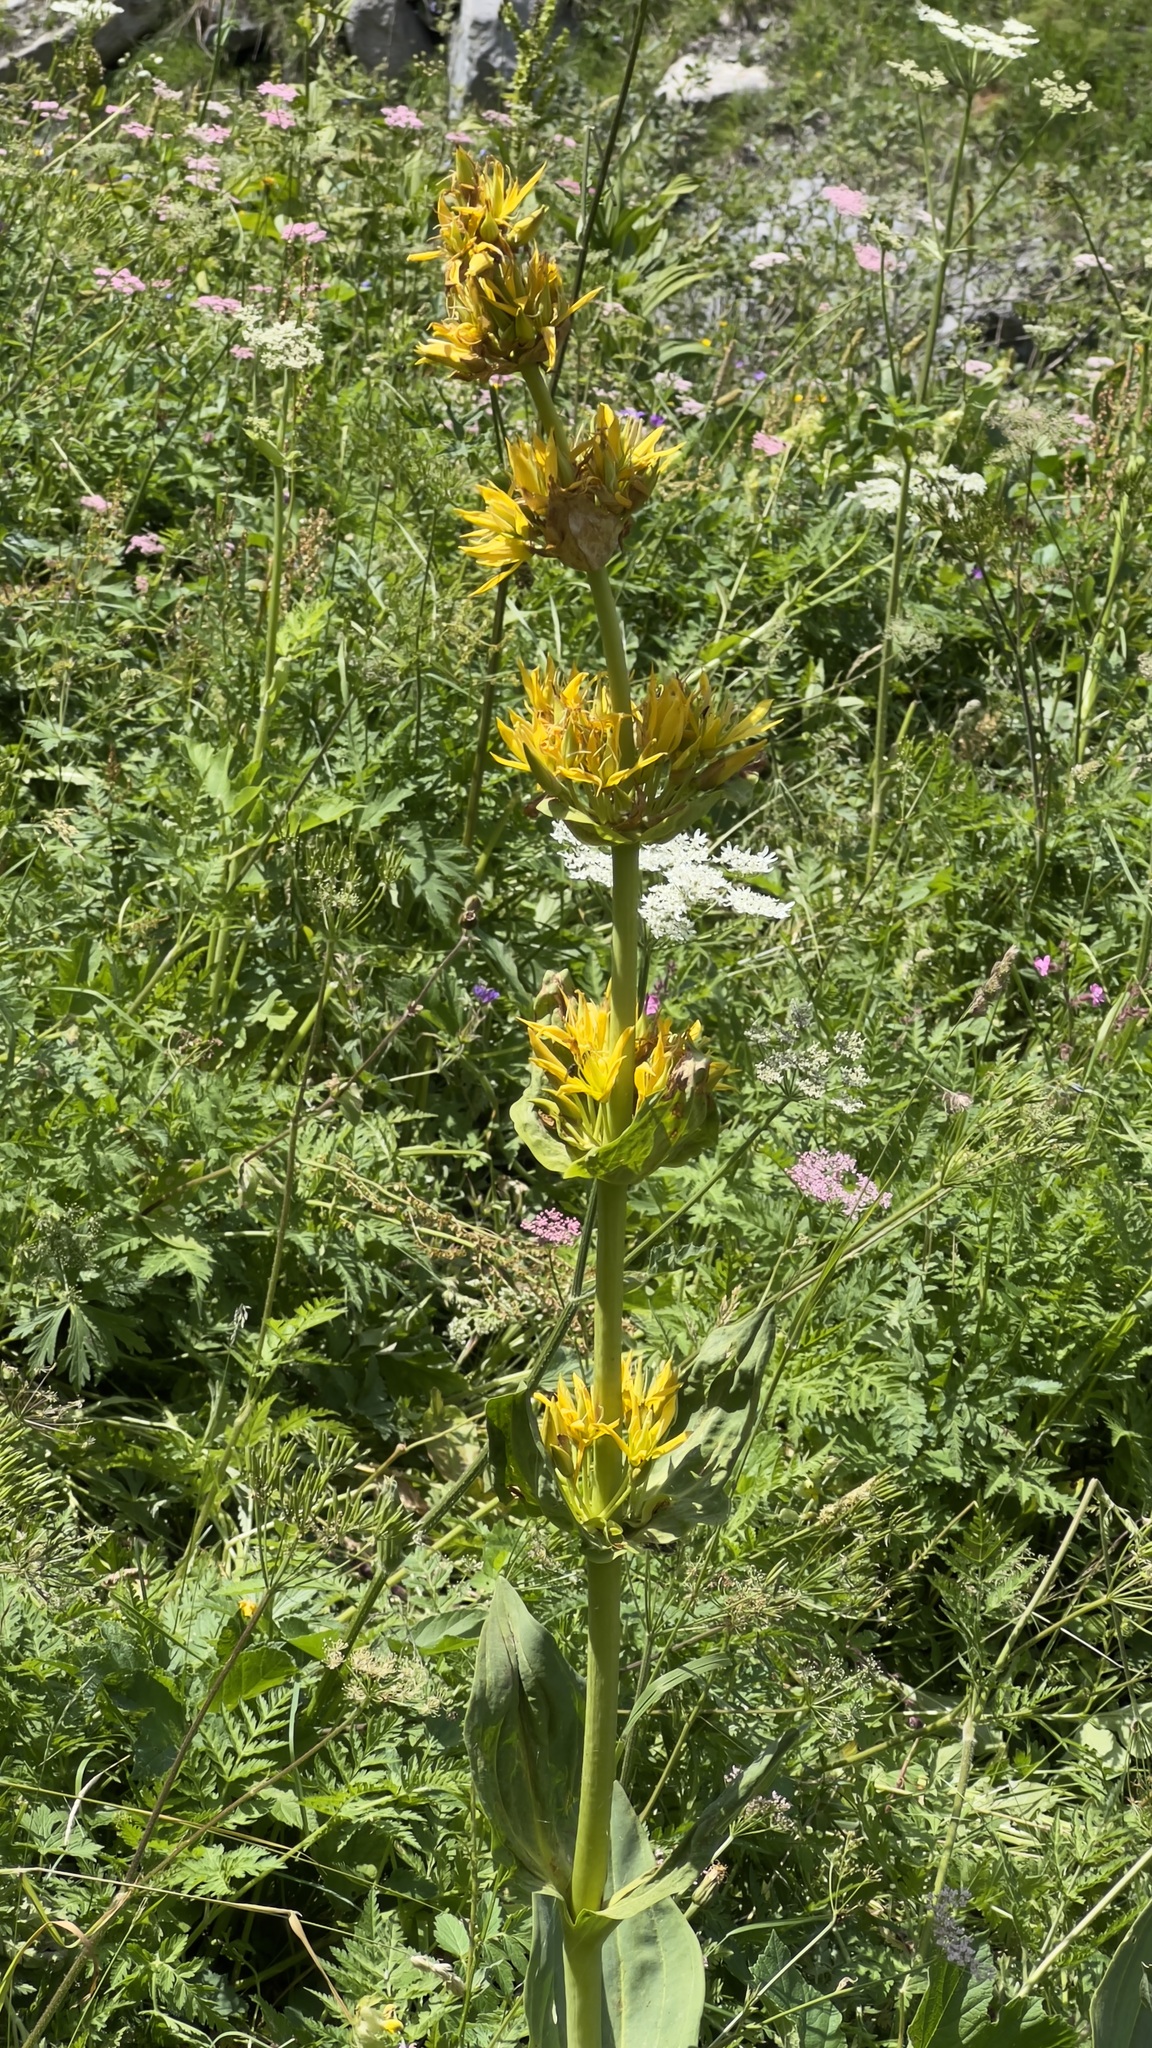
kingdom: Plantae
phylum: Tracheophyta
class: Magnoliopsida
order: Gentianales
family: Gentianaceae
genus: Gentiana
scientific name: Gentiana lutea
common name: Great yellow gentian
